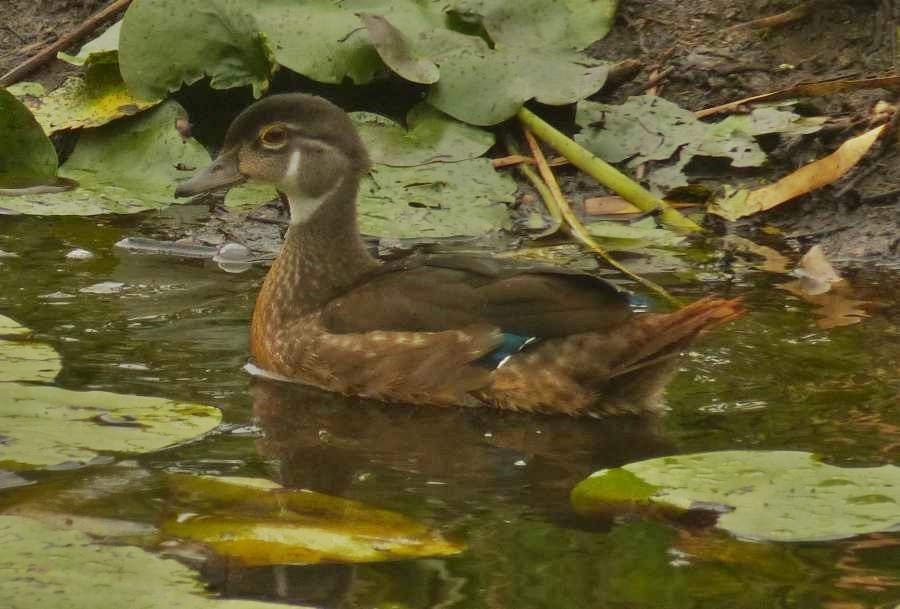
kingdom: Animalia
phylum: Chordata
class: Aves
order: Anseriformes
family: Anatidae
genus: Aix
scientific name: Aix sponsa
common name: Wood duck
